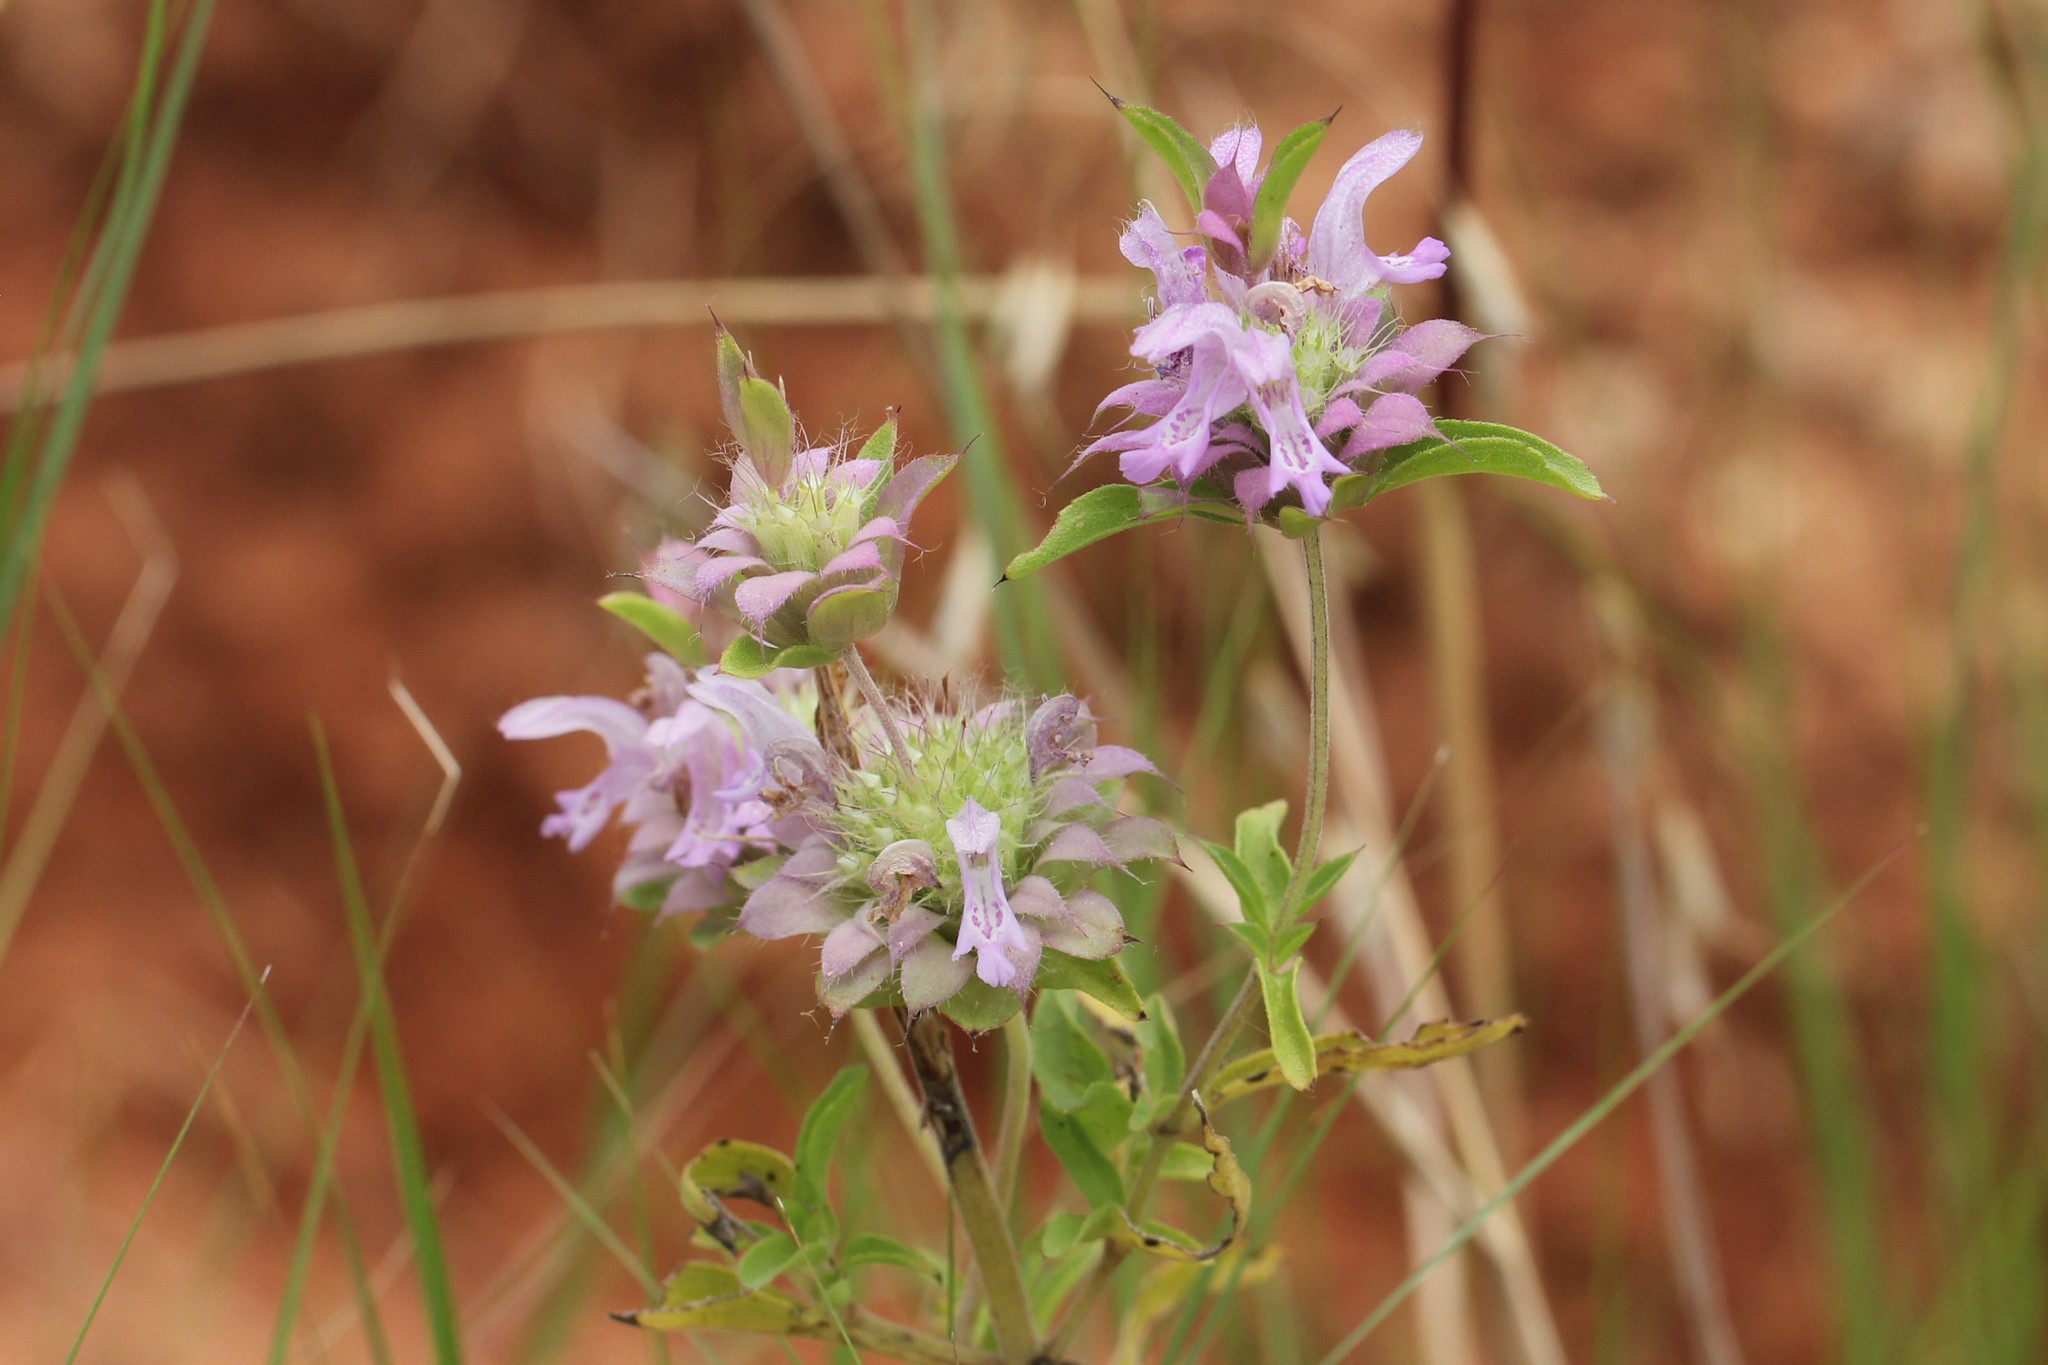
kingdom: Plantae
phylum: Tracheophyta
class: Magnoliopsida
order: Lamiales
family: Lamiaceae
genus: Monarda
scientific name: Monarda citriodora
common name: Lemon beebalm
